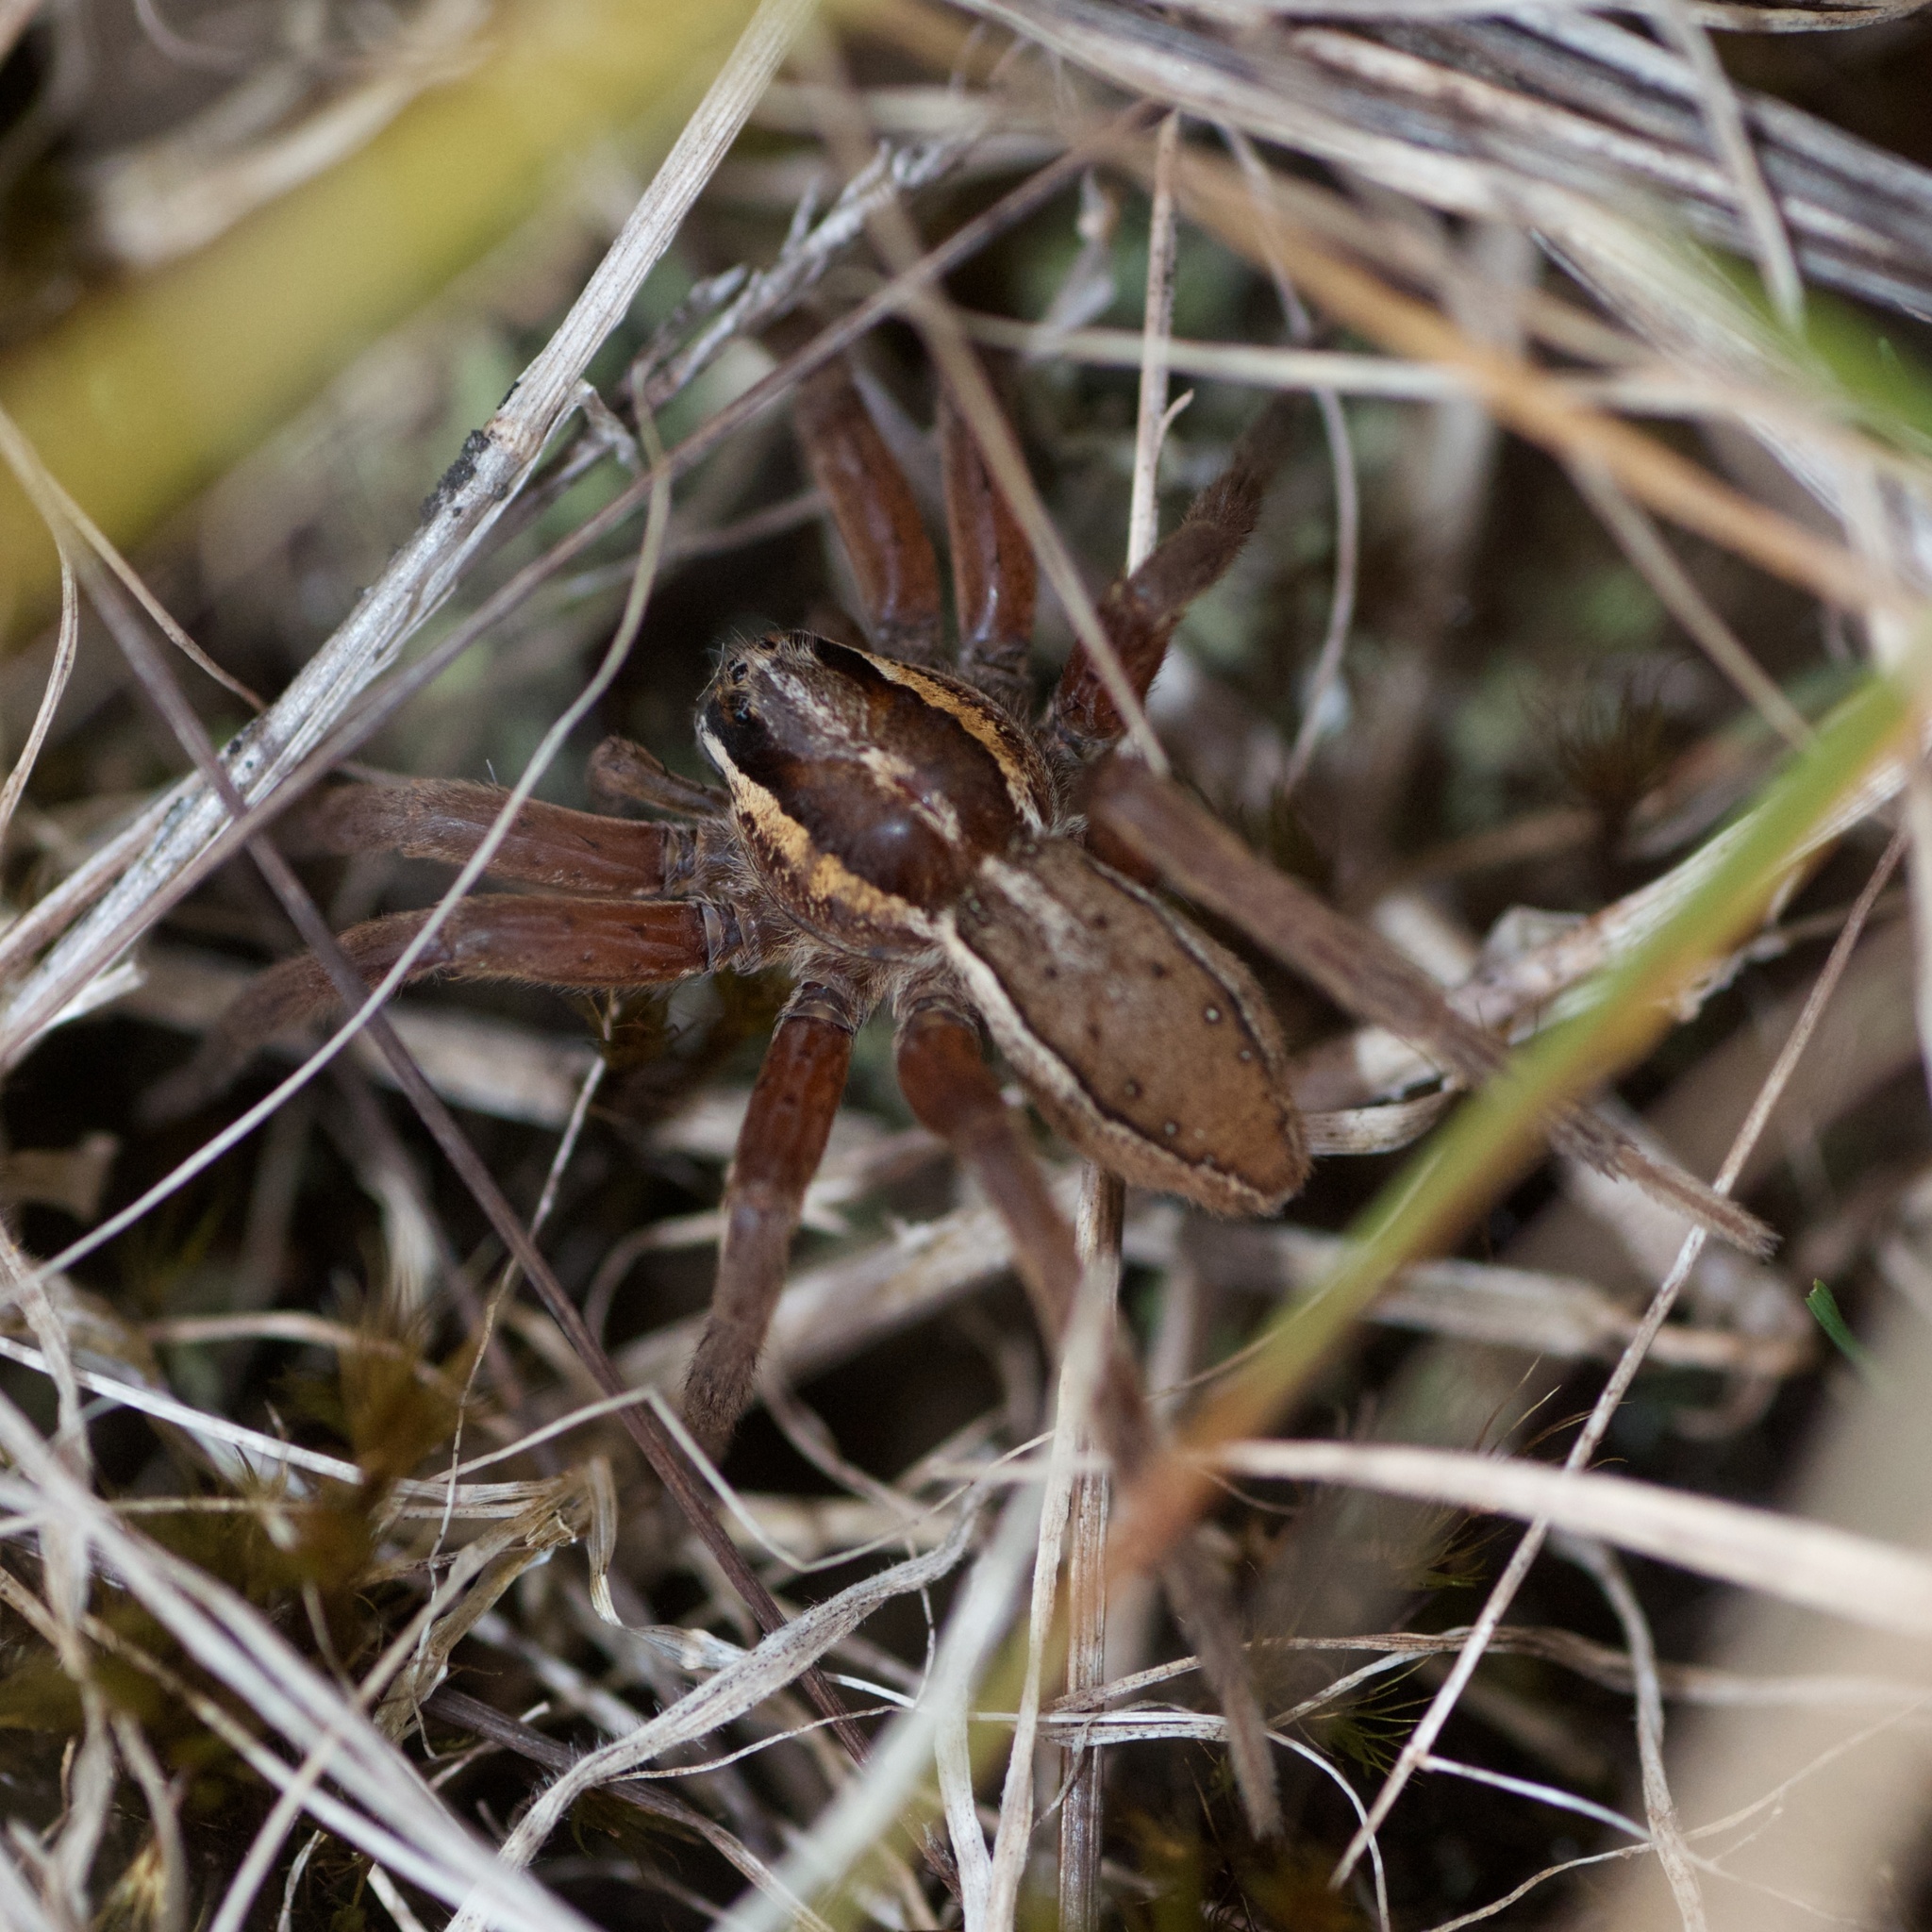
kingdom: Animalia
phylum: Arthropoda
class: Arachnida
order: Araneae
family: Pisauridae
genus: Dolomedes
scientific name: Dolomedes minor
